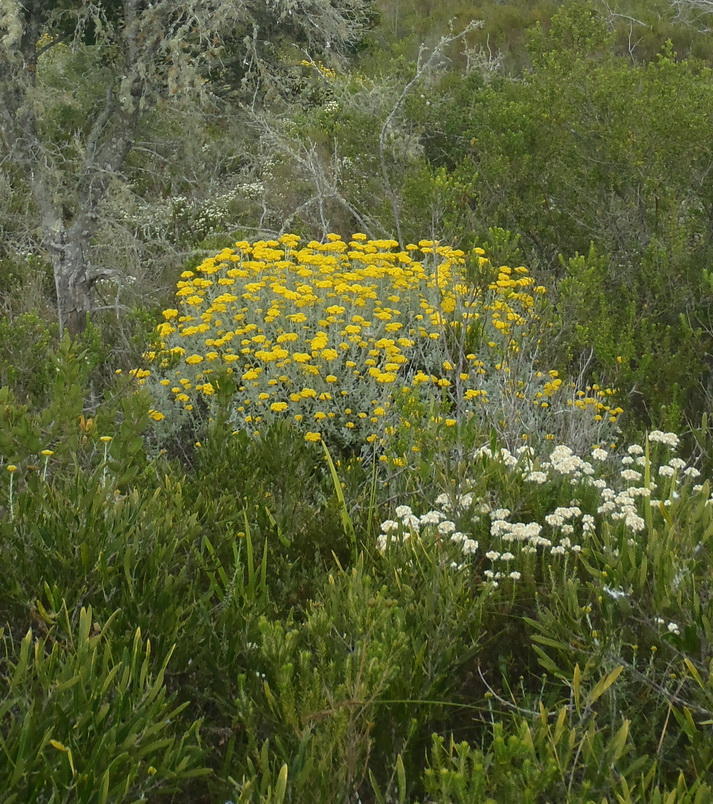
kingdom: Plantae
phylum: Tracheophyta
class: Magnoliopsida
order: Asterales
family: Asteraceae
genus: Helichrysum
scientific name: Helichrysum dasyanthum
